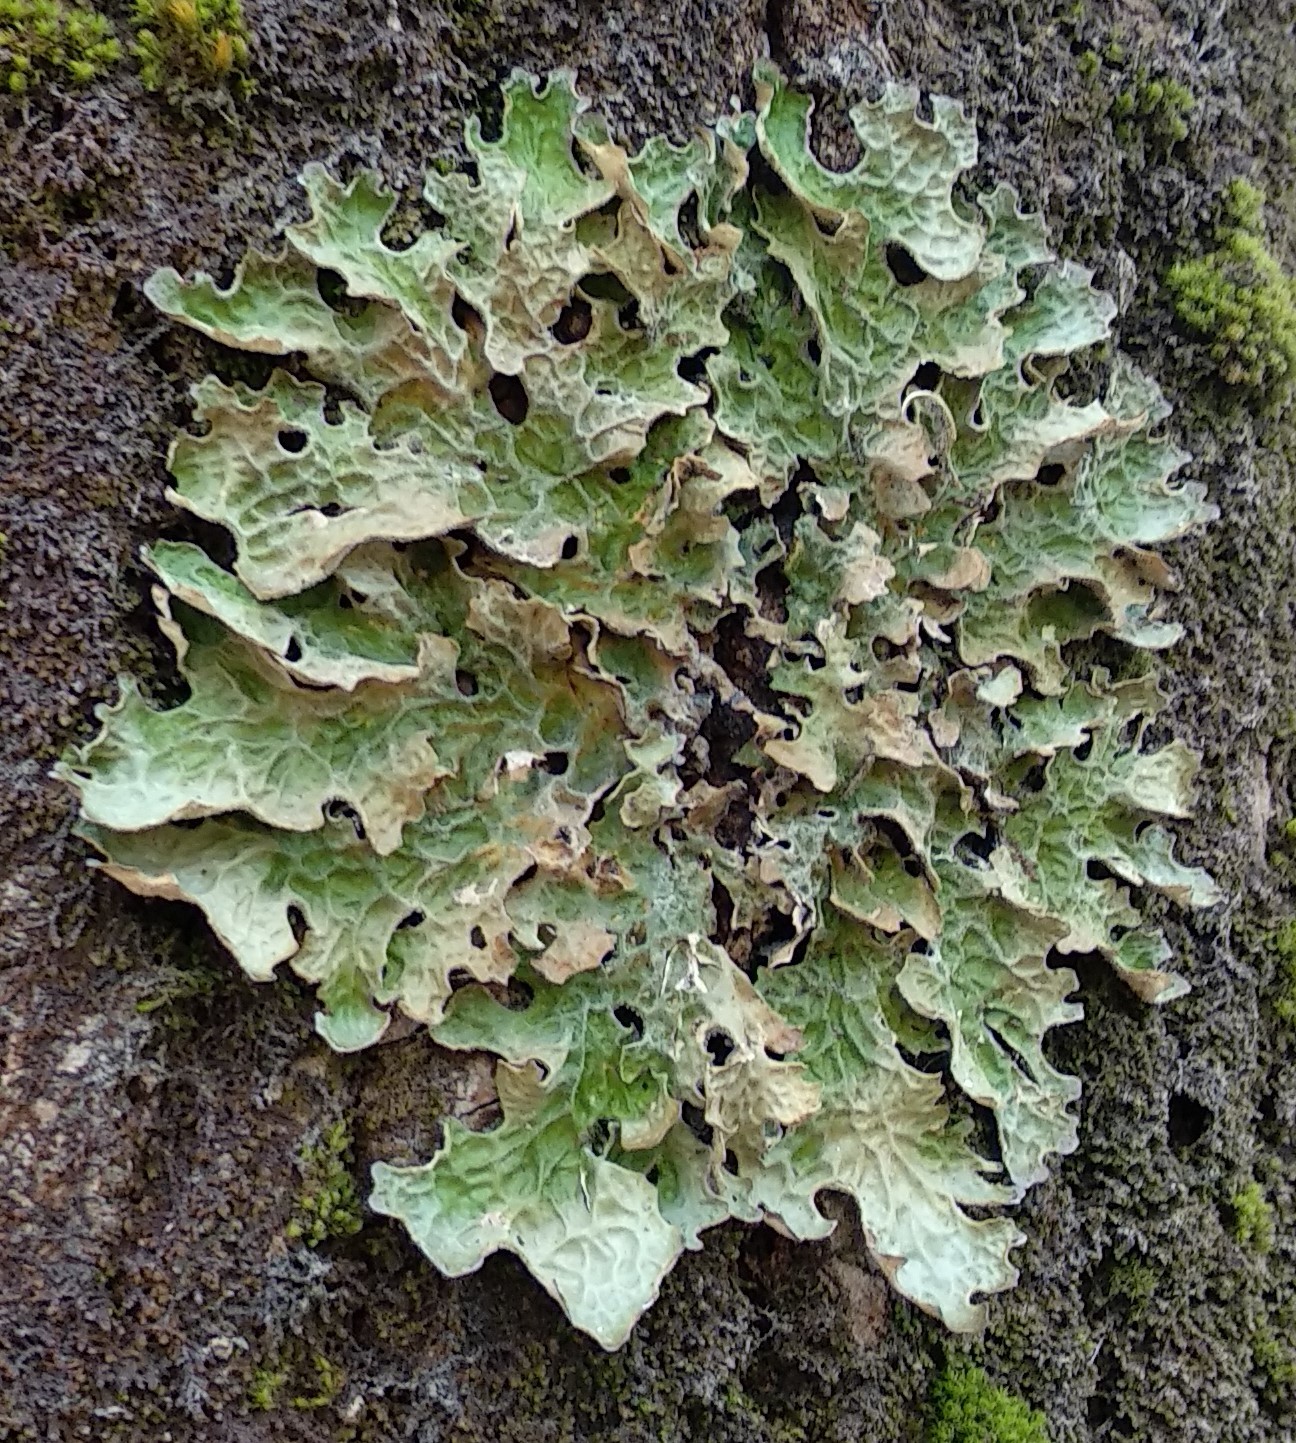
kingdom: Fungi
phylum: Ascomycota
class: Lecanoromycetes
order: Peltigerales
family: Lobariaceae
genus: Lobaria
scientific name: Lobaria pulmonaria
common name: Lungwort
